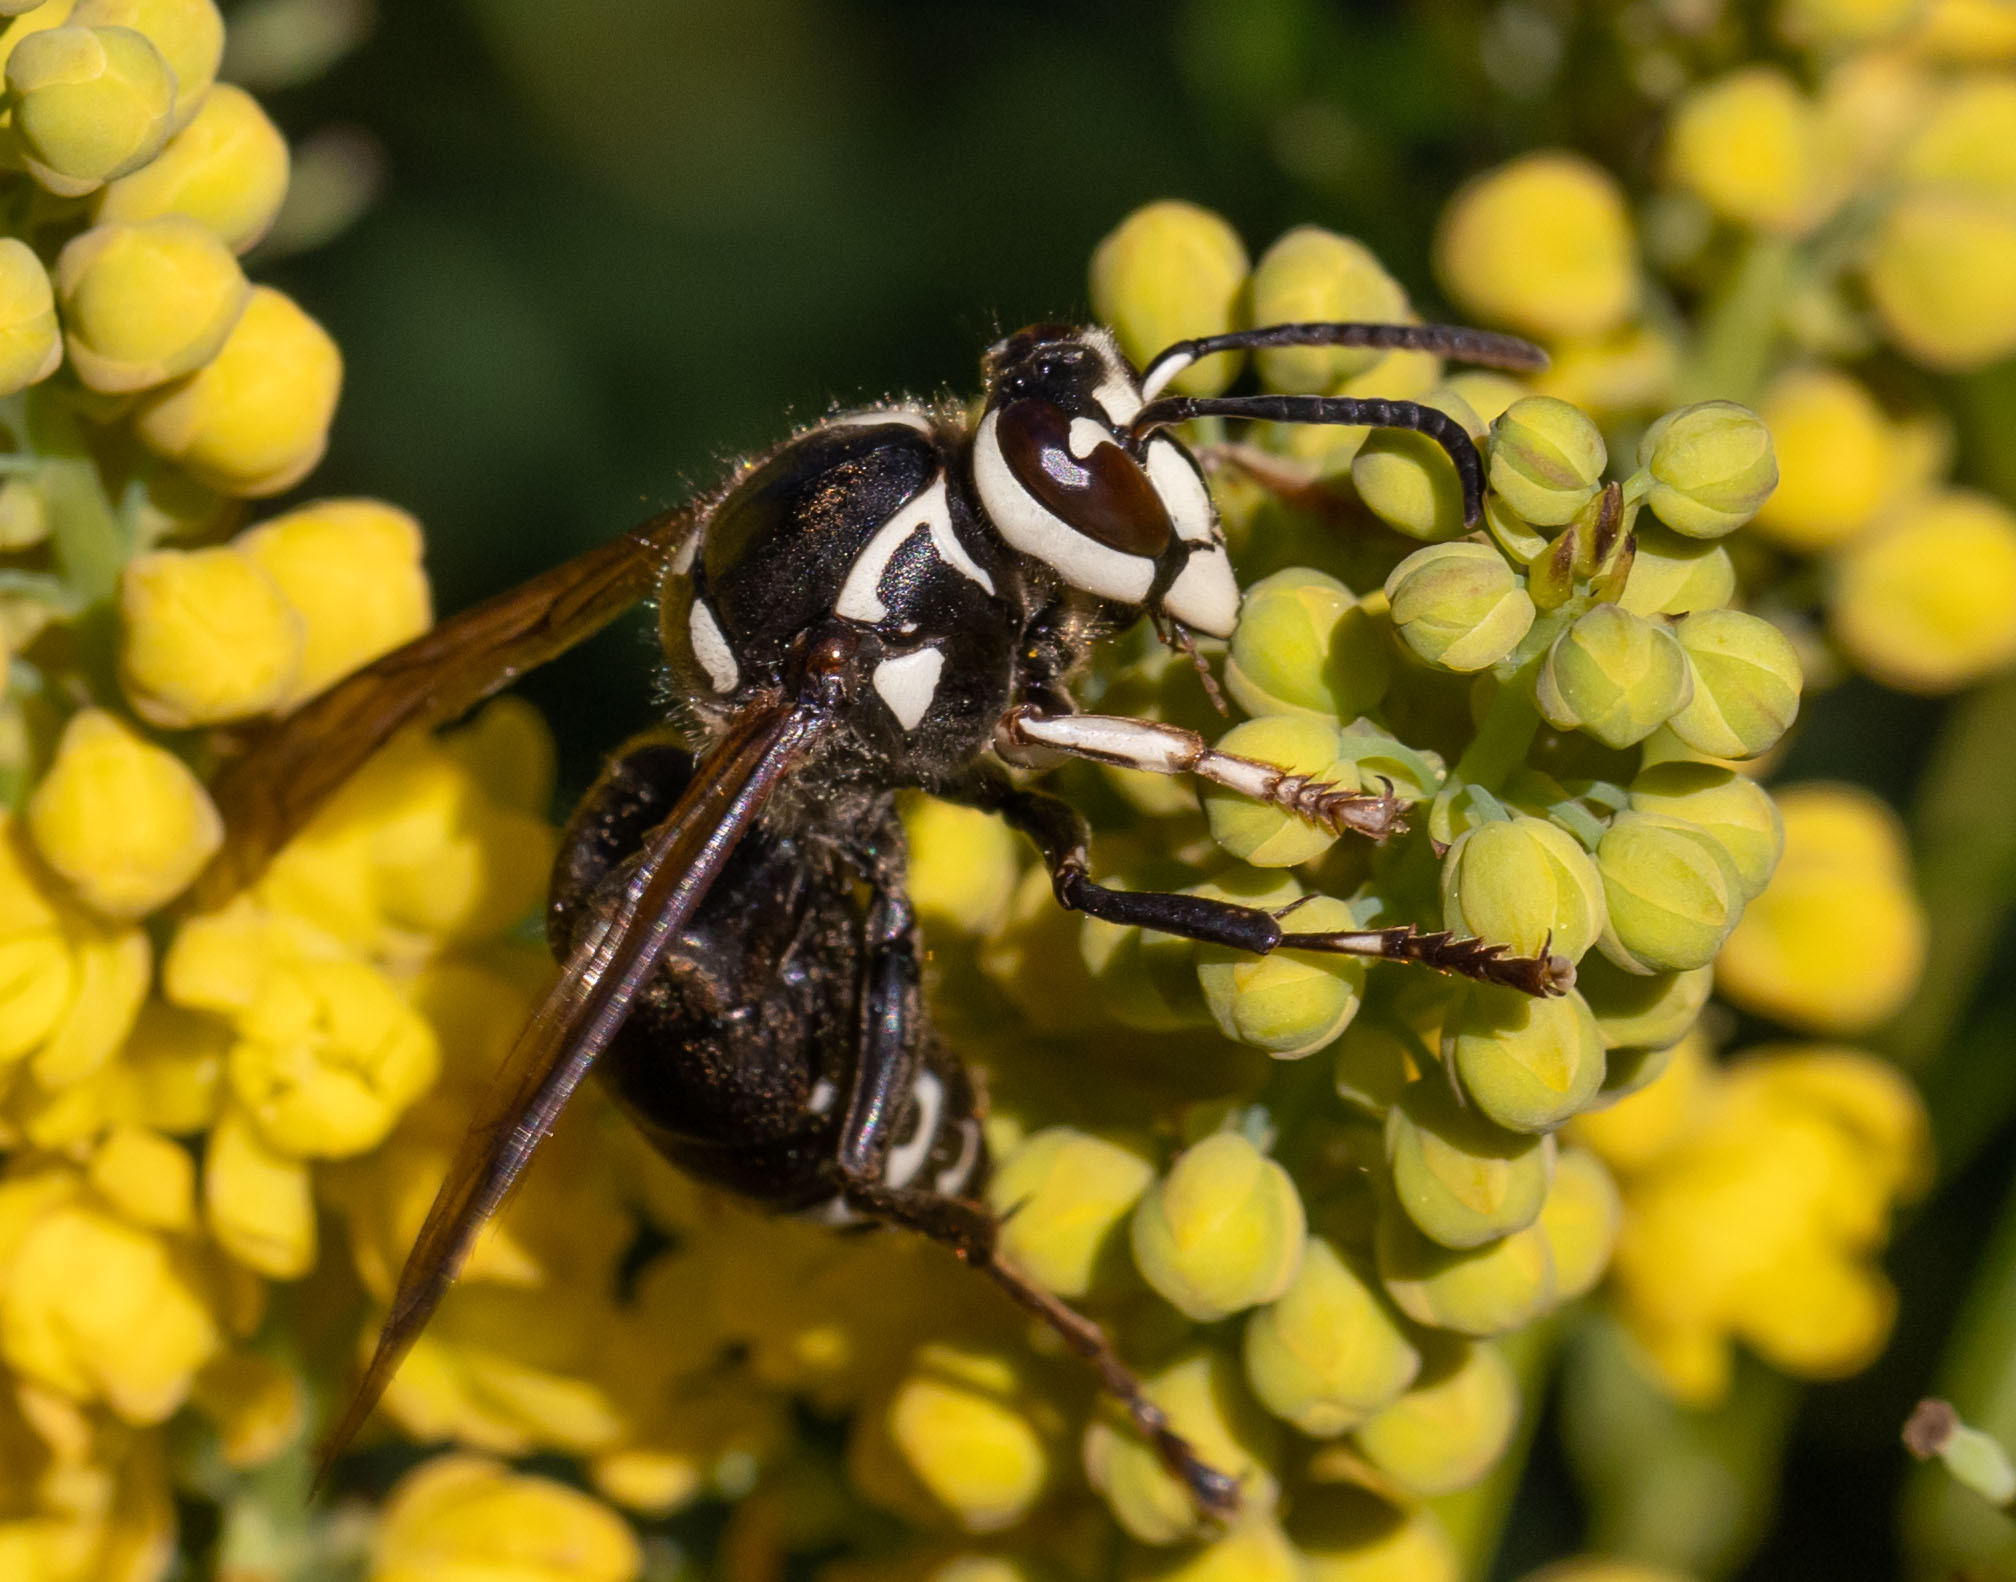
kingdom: Animalia
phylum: Arthropoda
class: Insecta
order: Hymenoptera
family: Vespidae
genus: Dolichovespula
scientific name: Dolichovespula maculata
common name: Bald-faced hornet
